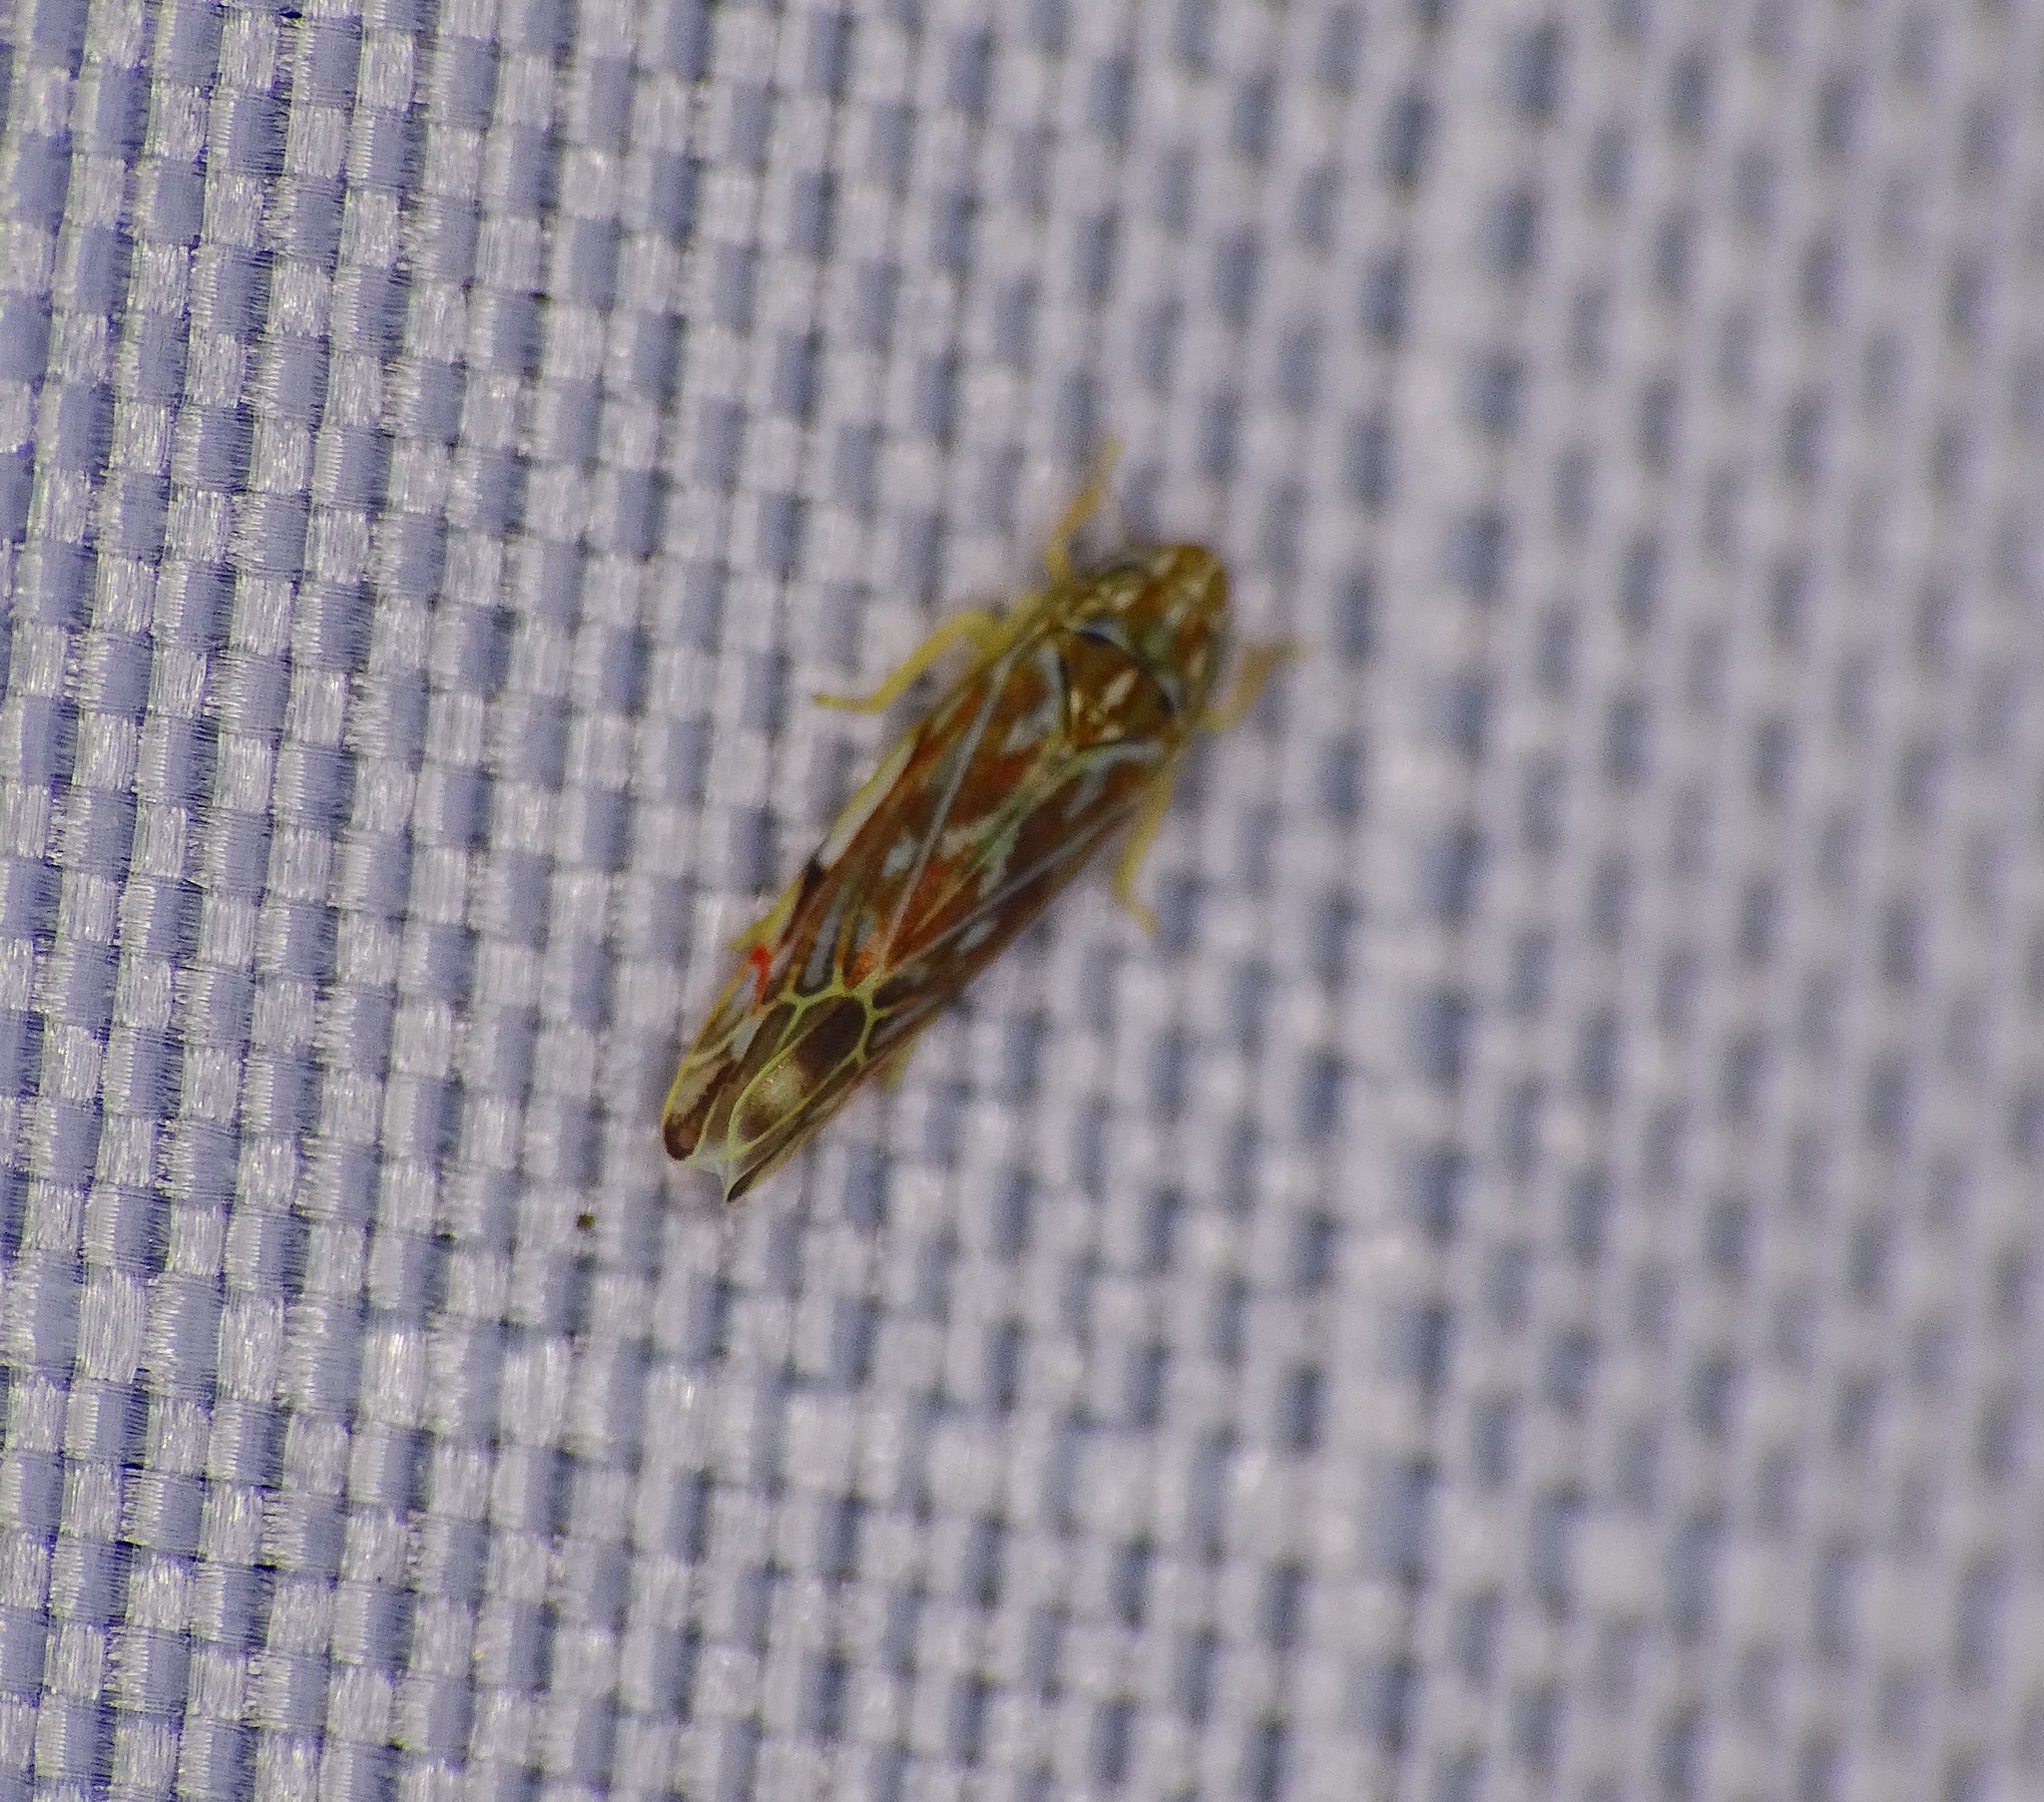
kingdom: Animalia
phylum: Arthropoda
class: Insecta
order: Hemiptera
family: Cicadellidae
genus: Erasmoneura
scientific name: Erasmoneura vulnerata
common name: The wounded leafhopper
